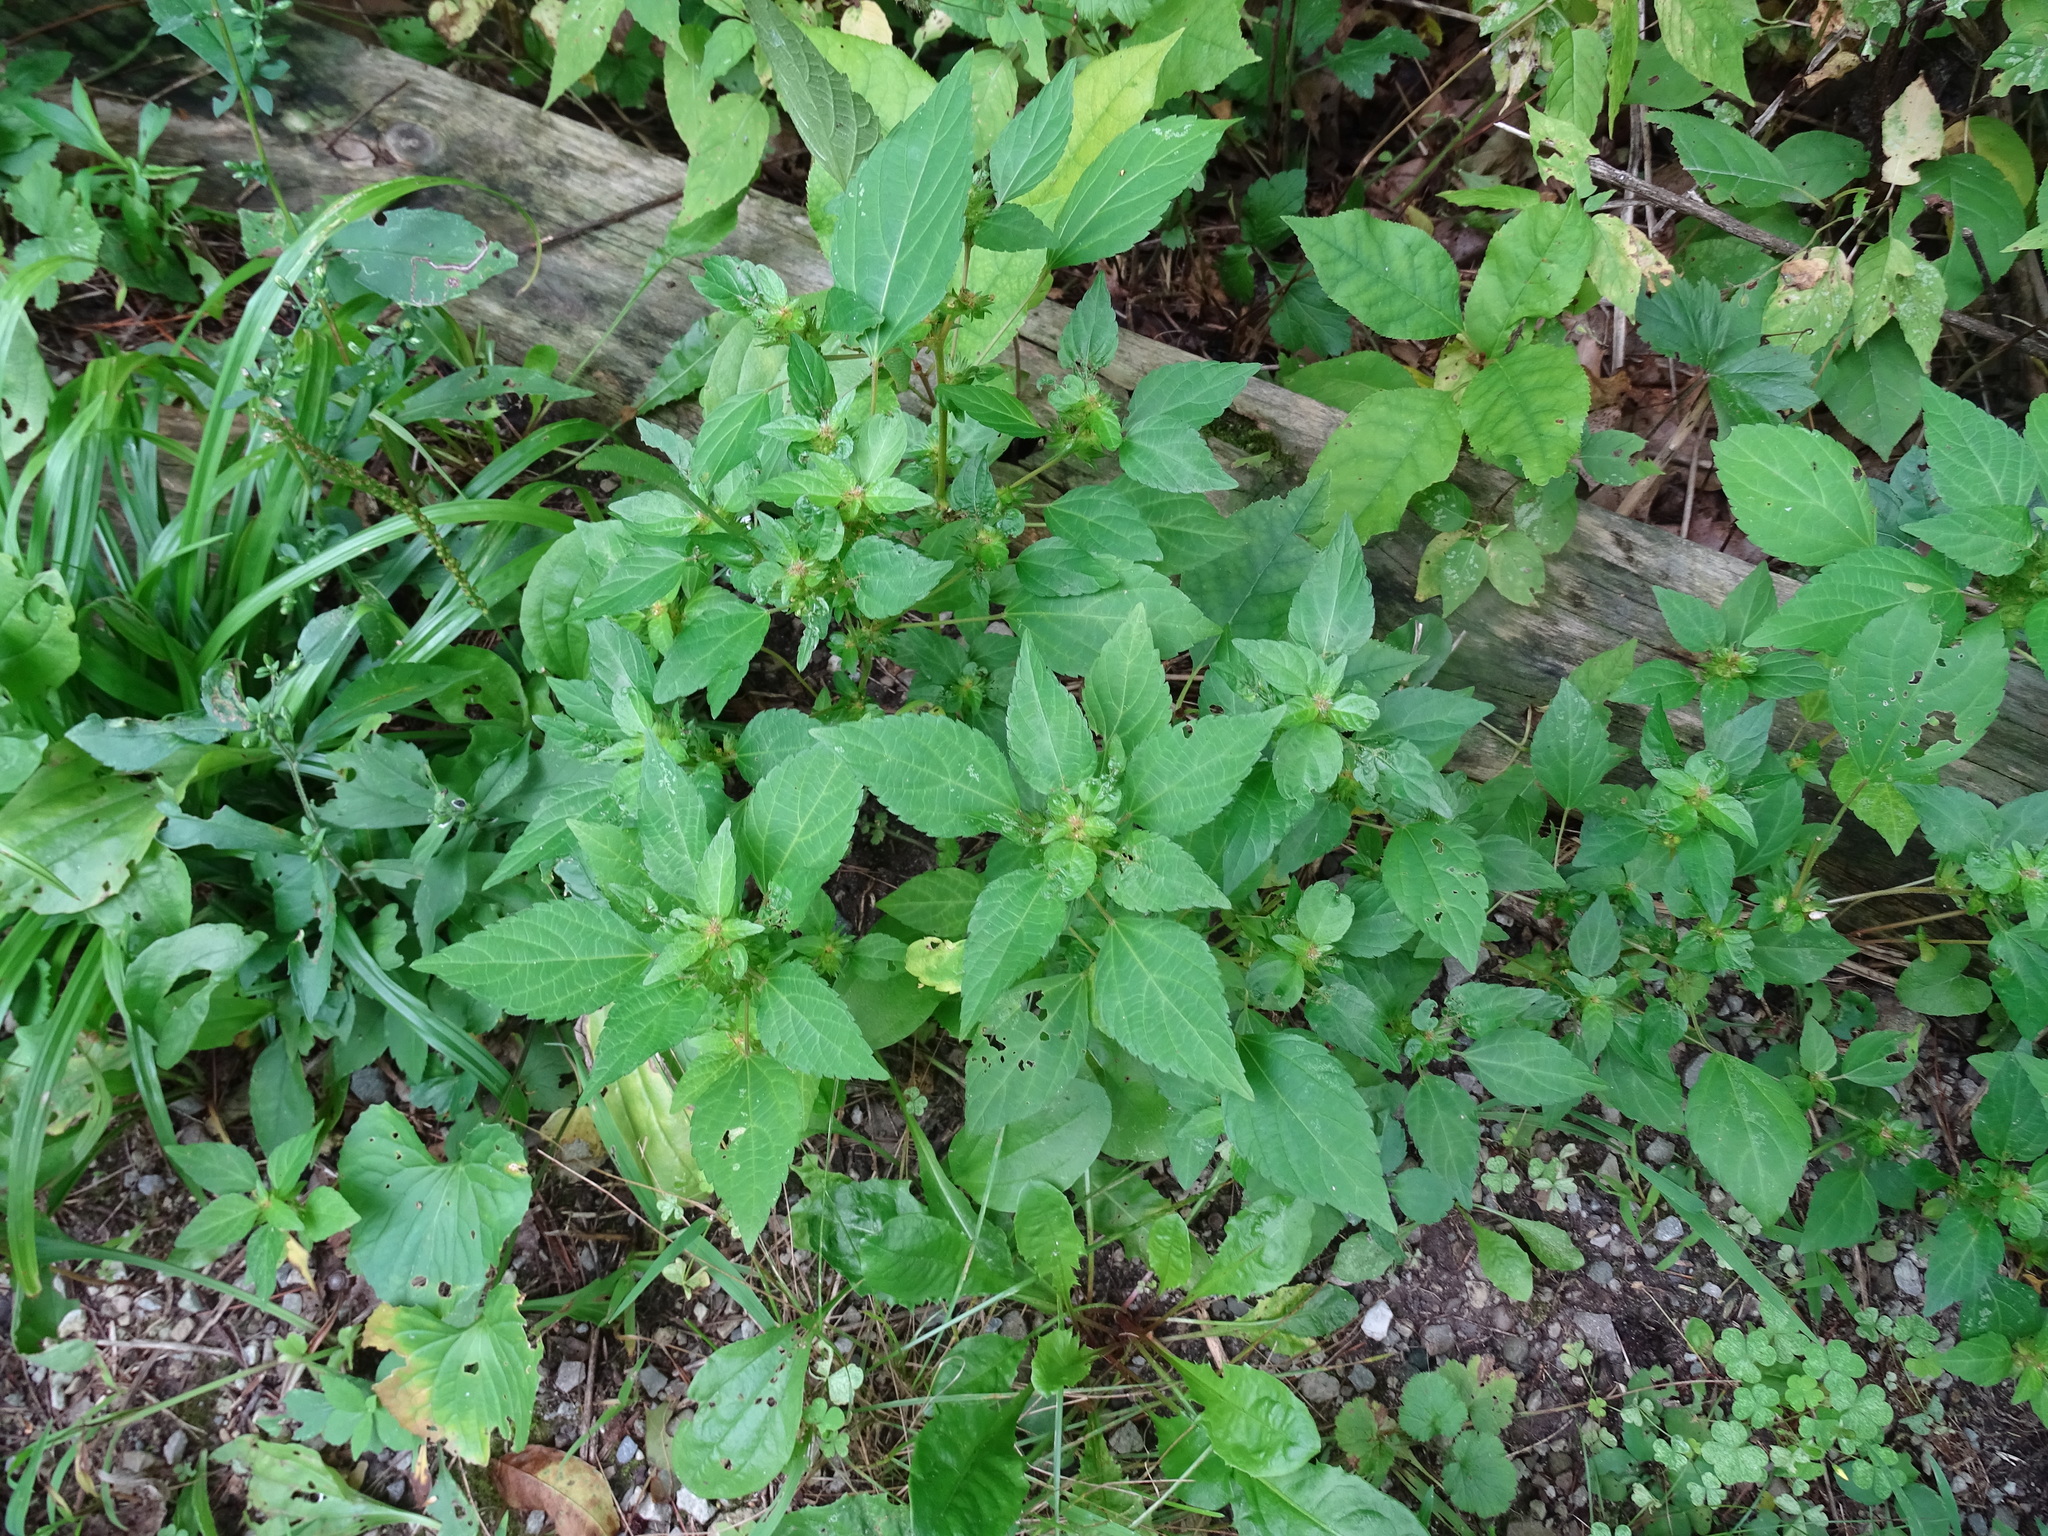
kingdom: Plantae
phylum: Tracheophyta
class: Magnoliopsida
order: Malpighiales
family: Euphorbiaceae
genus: Acalypha
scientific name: Acalypha rhomboidea
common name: Rhombic copperleaf
